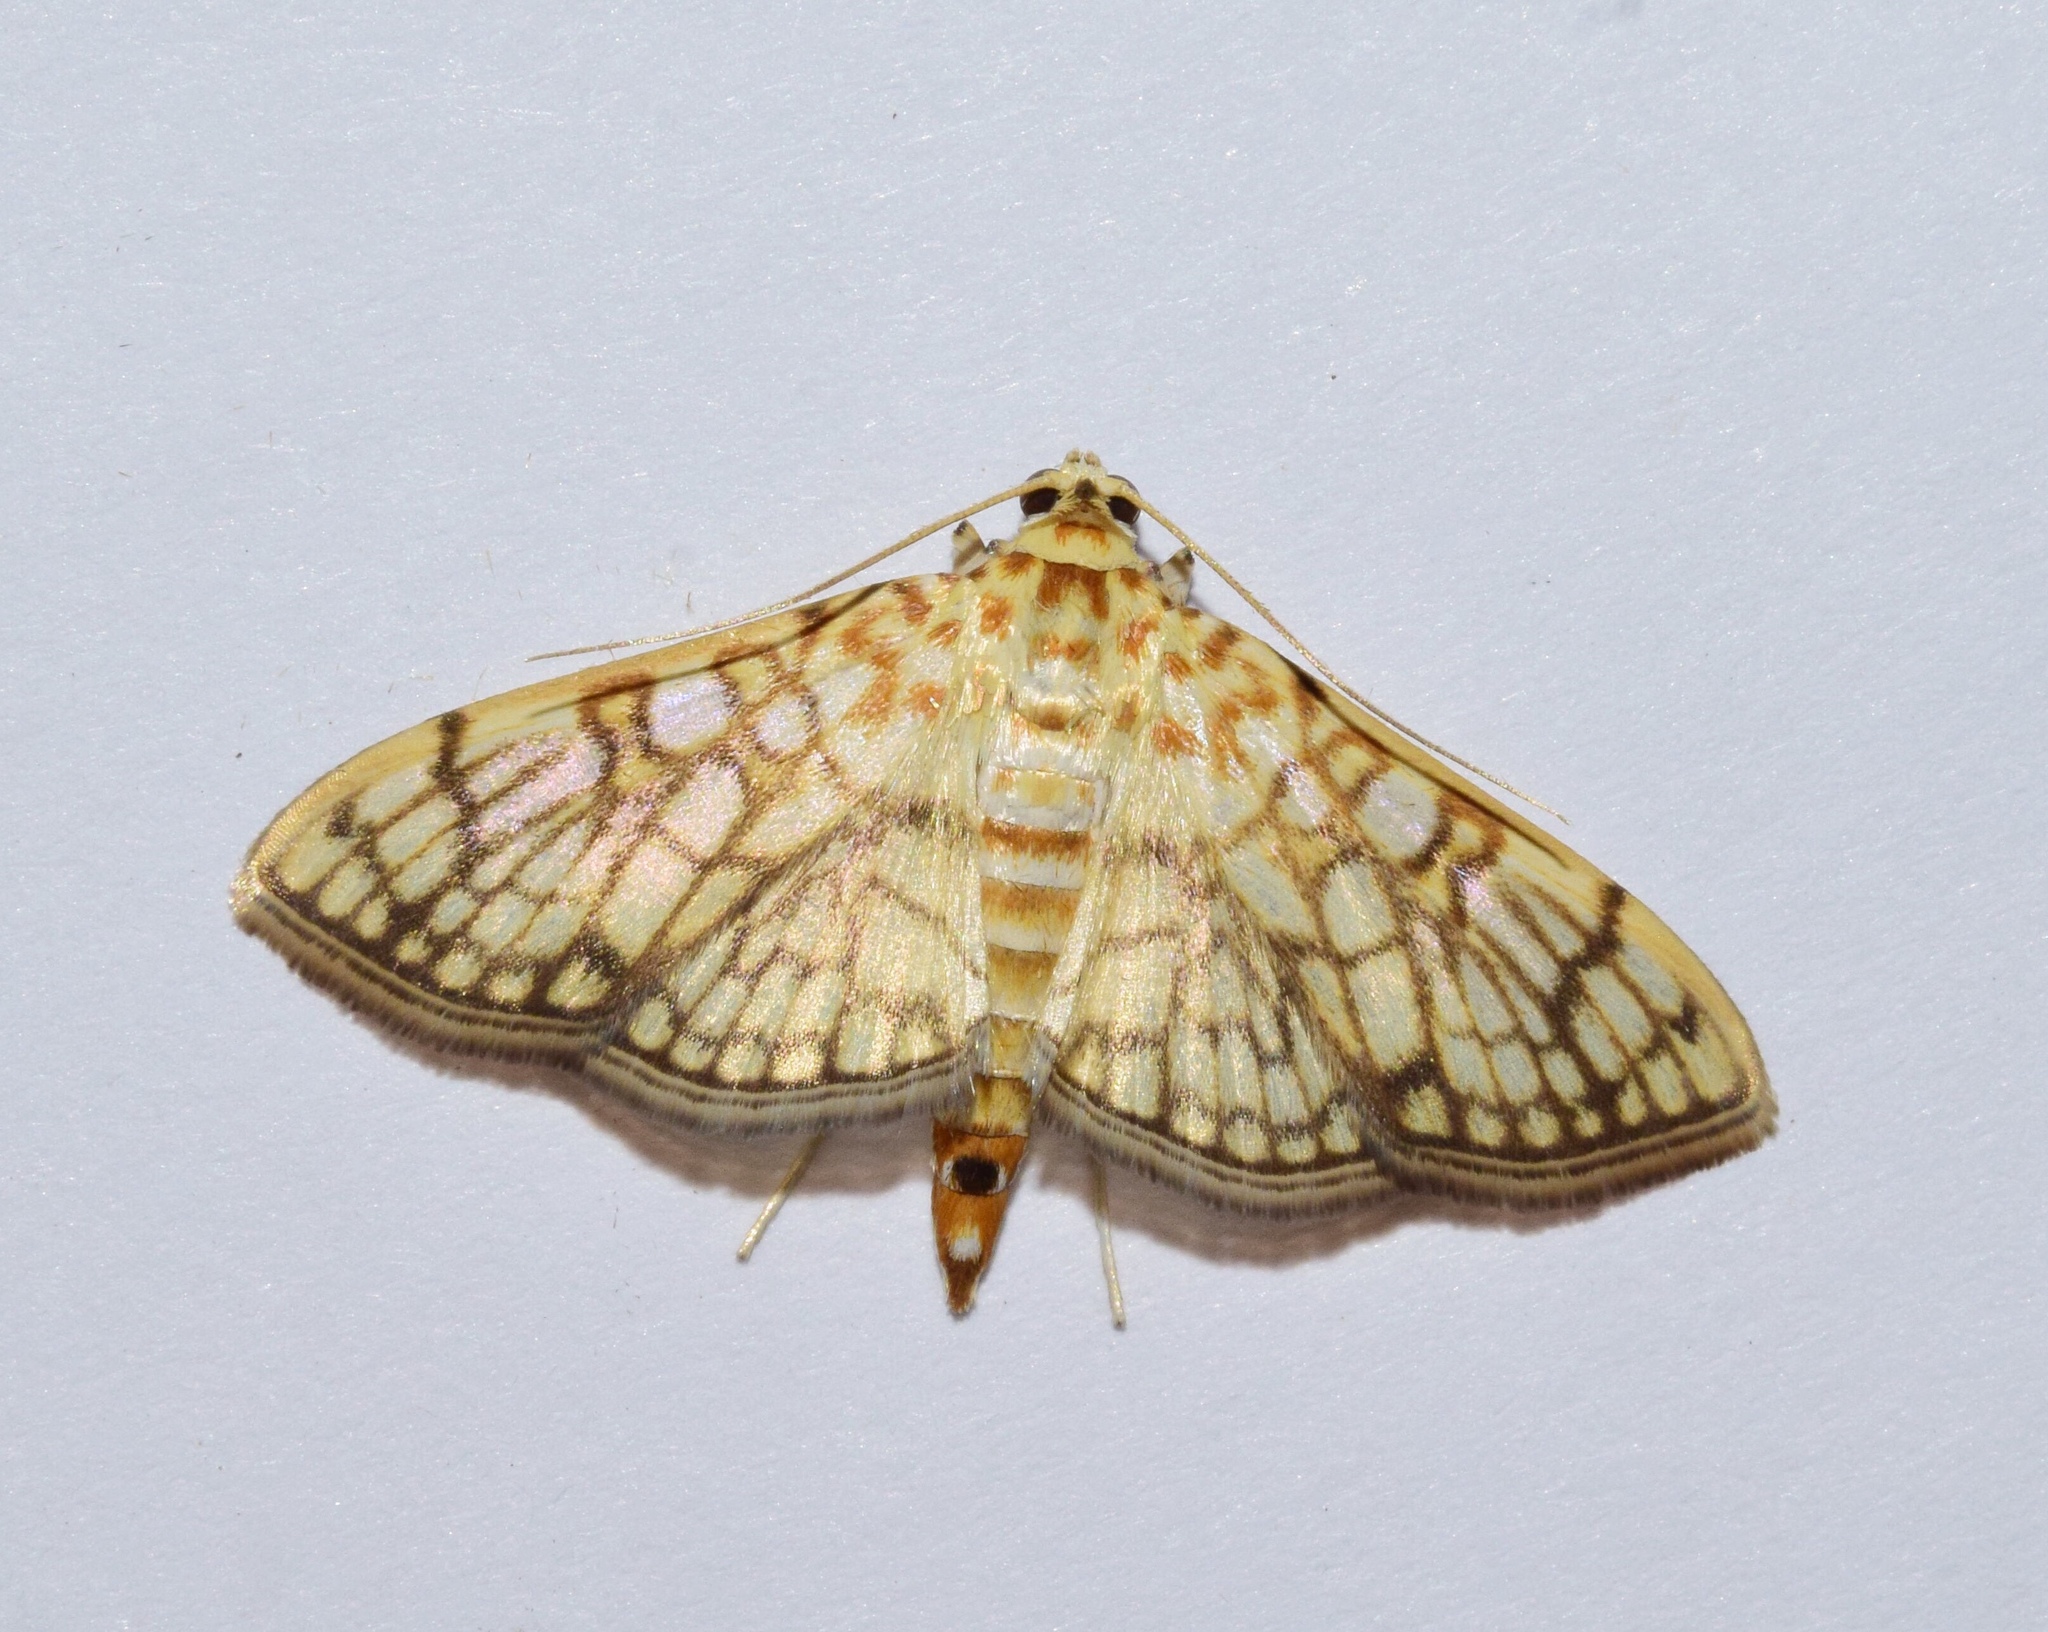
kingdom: Animalia
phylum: Arthropoda
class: Insecta
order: Lepidoptera
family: Crambidae
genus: Syllepte
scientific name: Syllepte polycymalis
